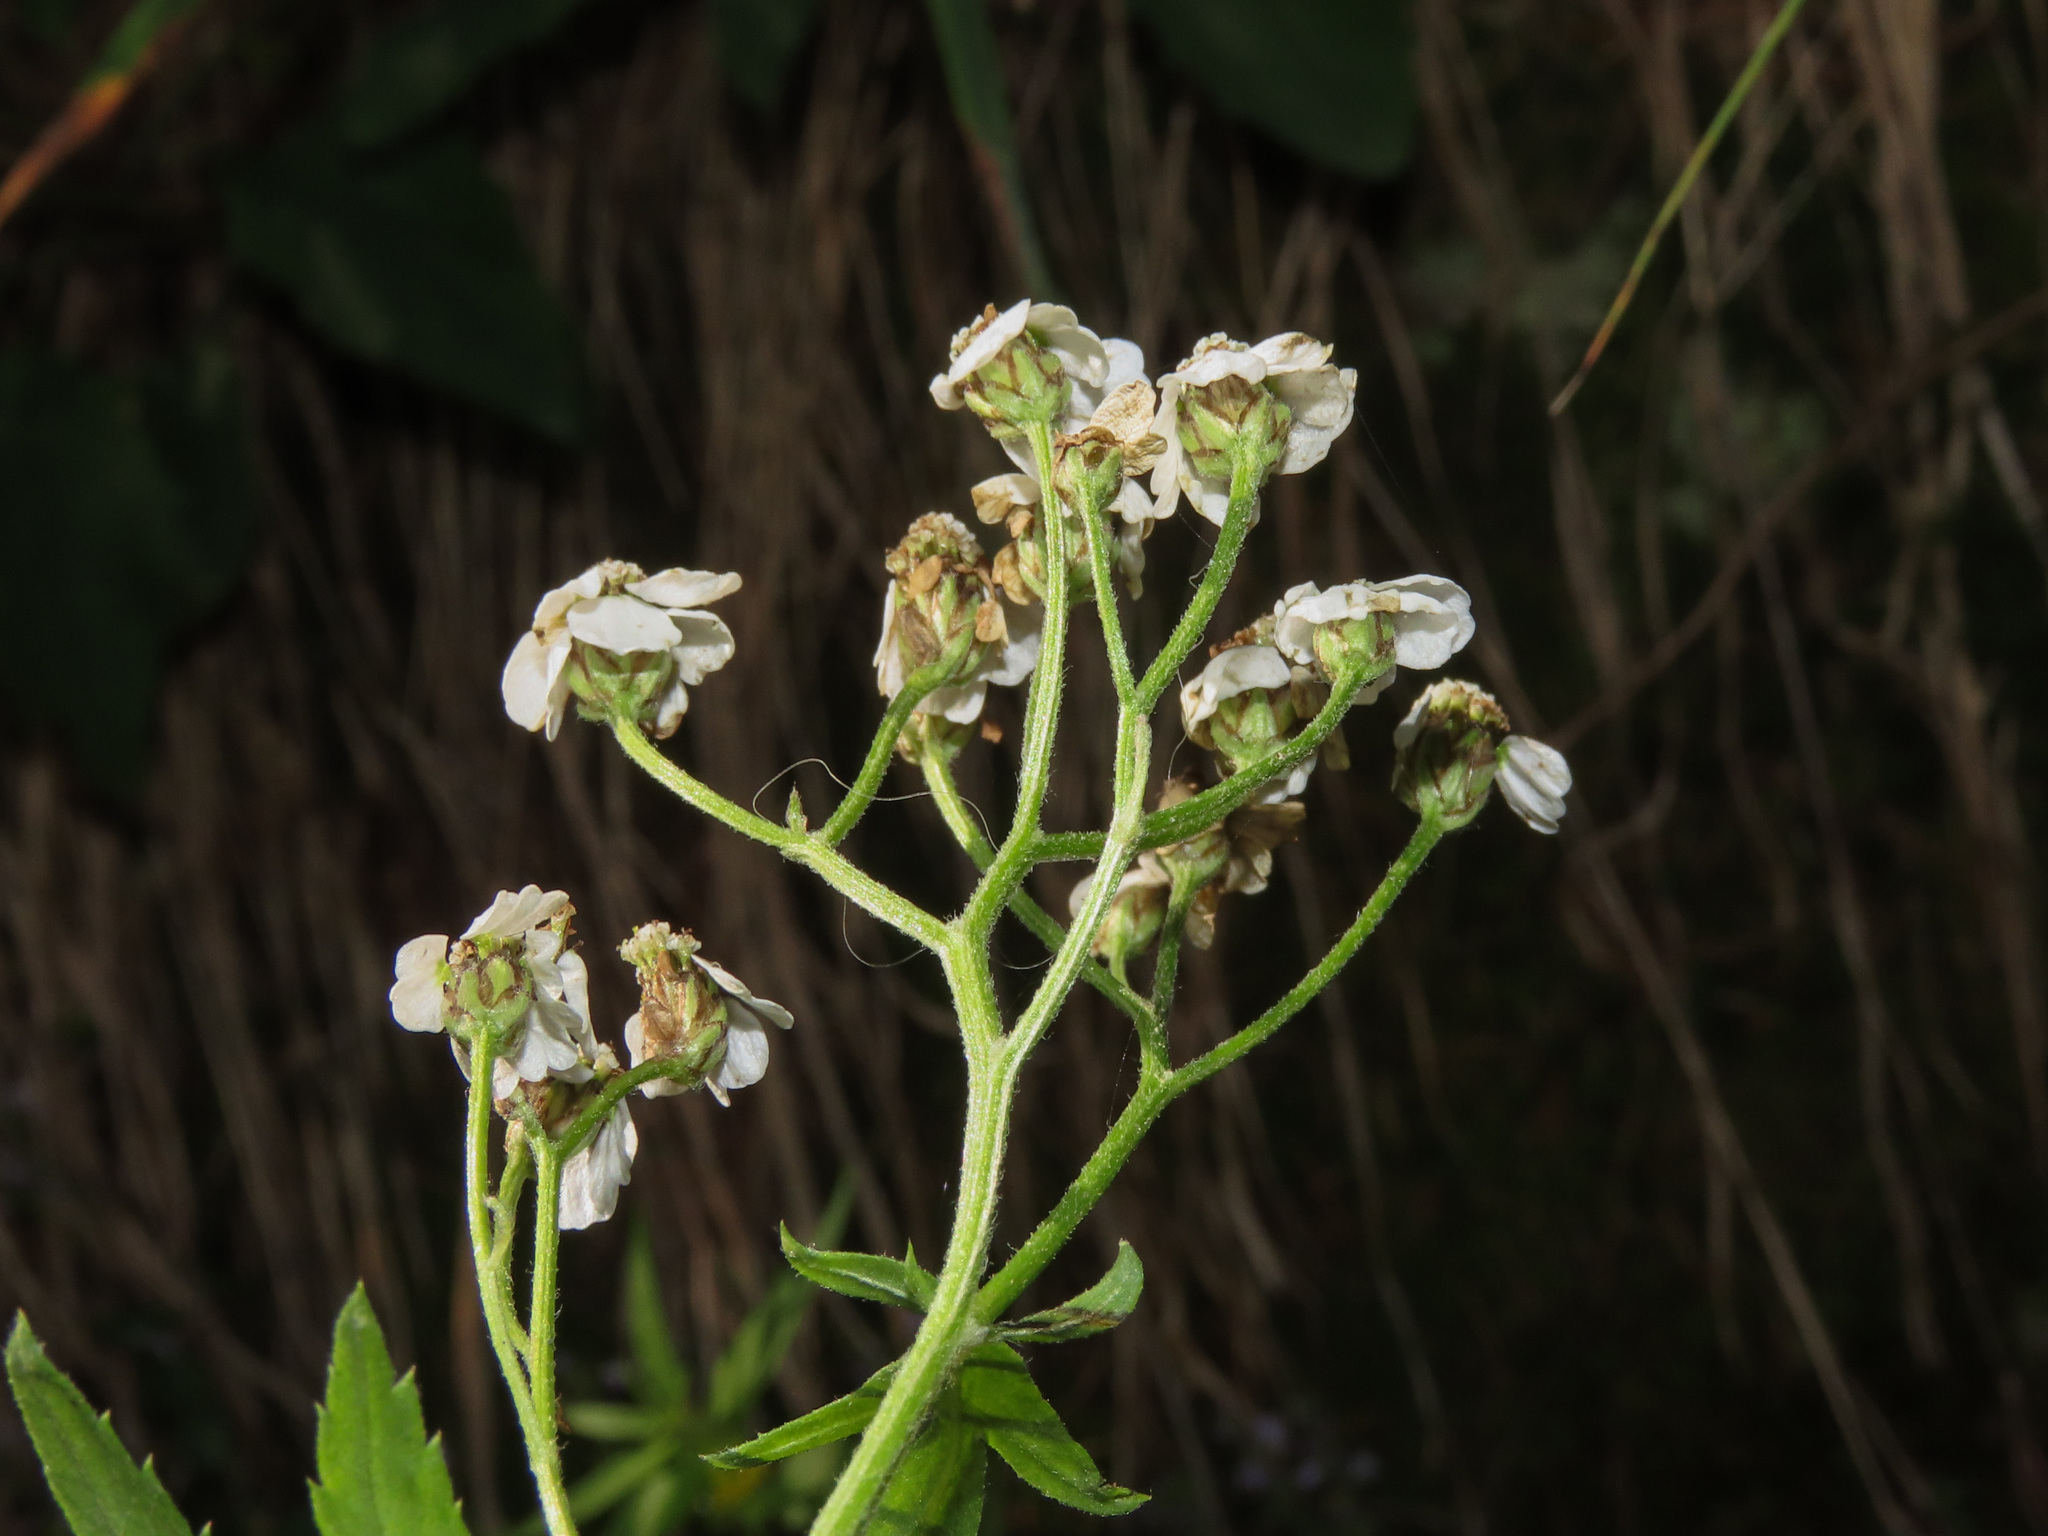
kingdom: Plantae
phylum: Tracheophyta
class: Magnoliopsida
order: Asterales
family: Asteraceae
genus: Achillea
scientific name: Achillea macrophylla
